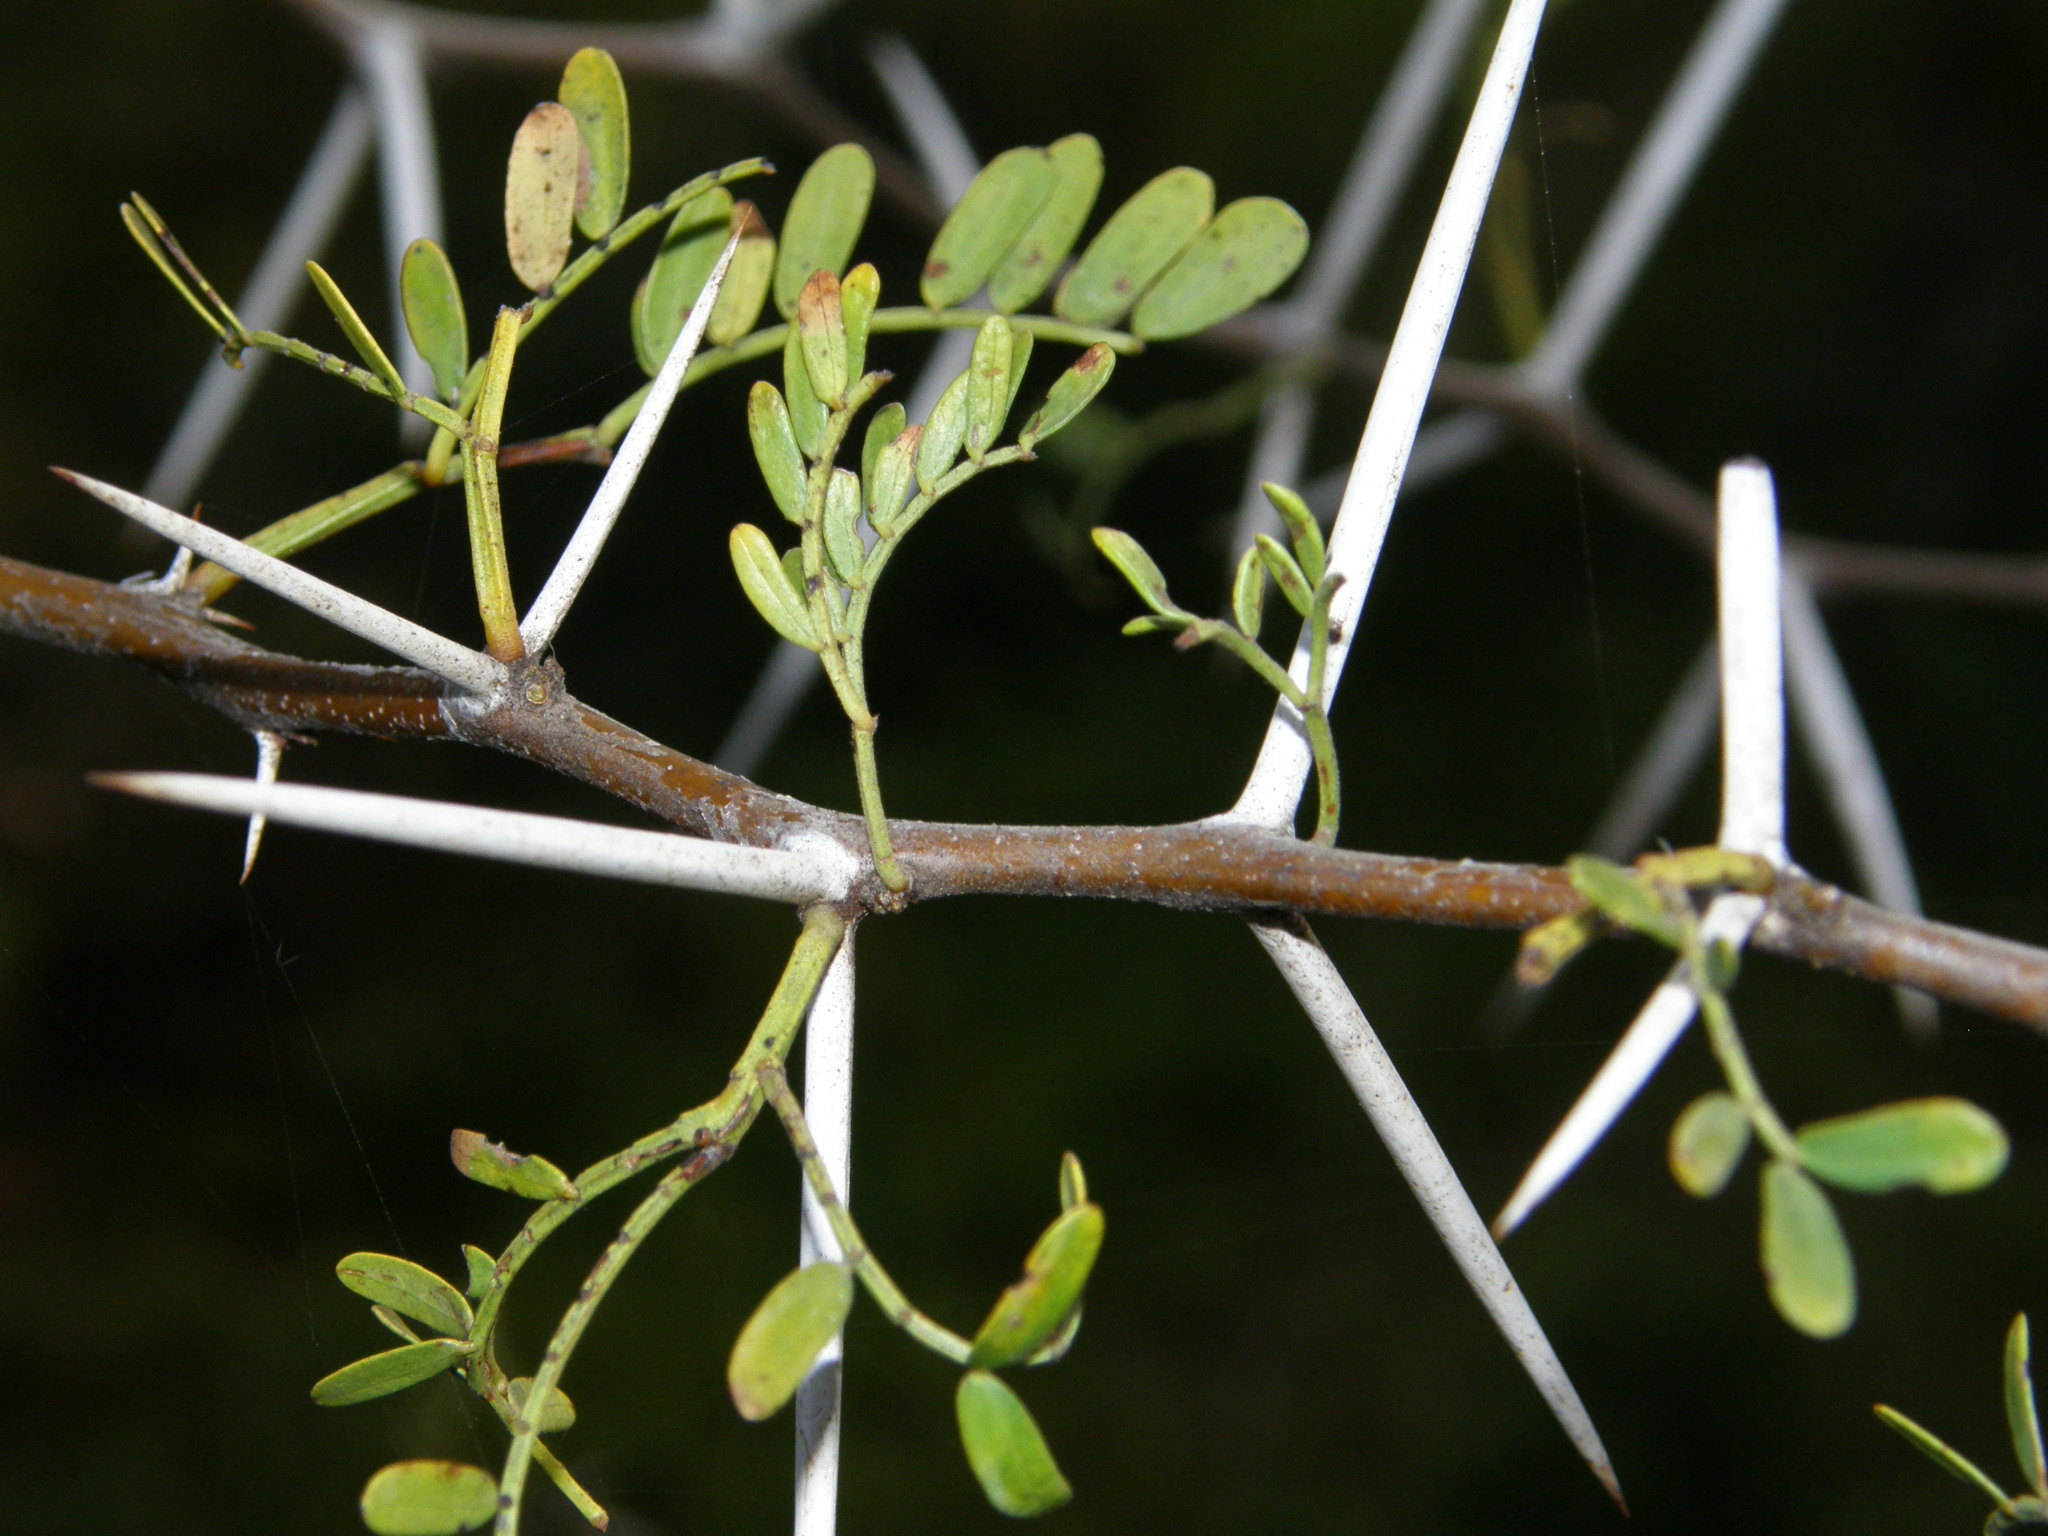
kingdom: Plantae
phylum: Tracheophyta
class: Magnoliopsida
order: Fabales
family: Fabaceae
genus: Vachellia
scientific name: Vachellia karroo
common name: Sweet thorn
